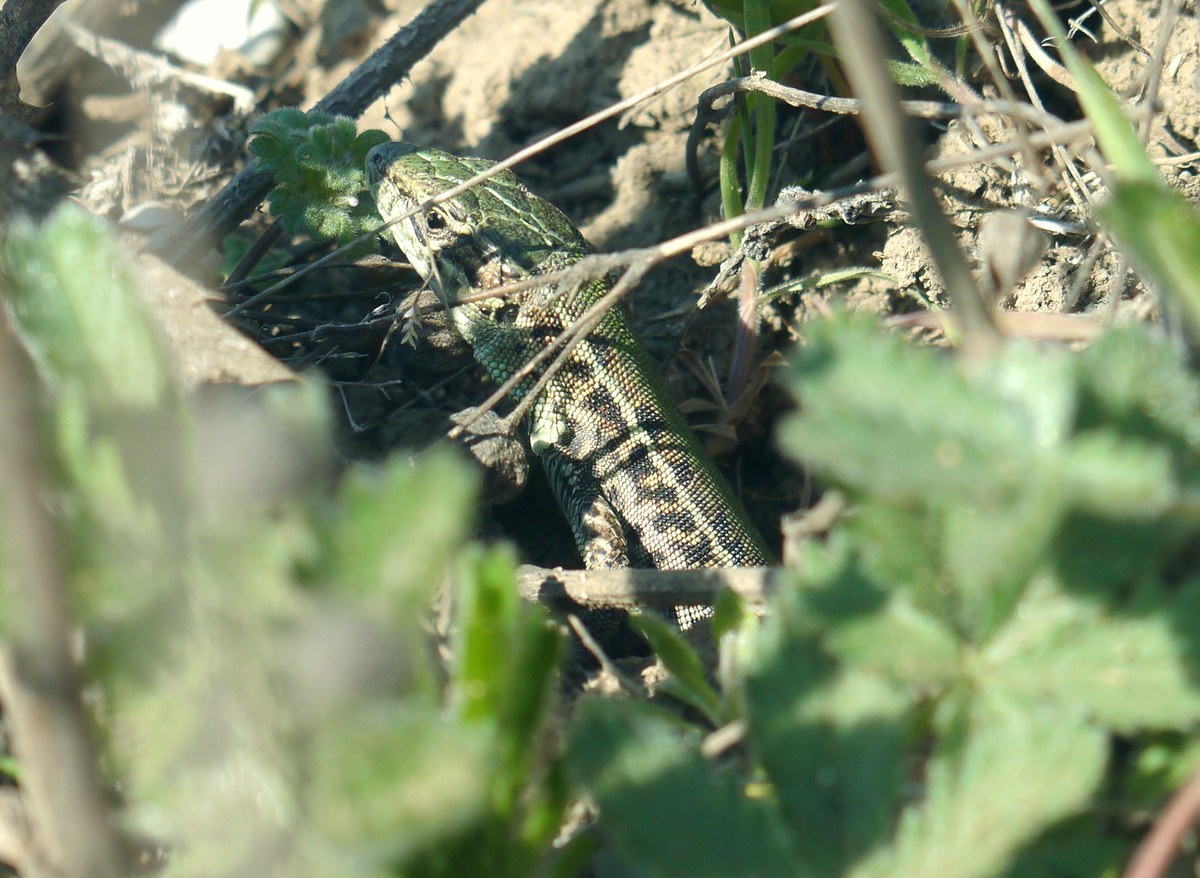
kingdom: Animalia
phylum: Chordata
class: Squamata
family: Lacertidae
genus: Podarcis
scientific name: Podarcis tauricus
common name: Balkan wall lizard
